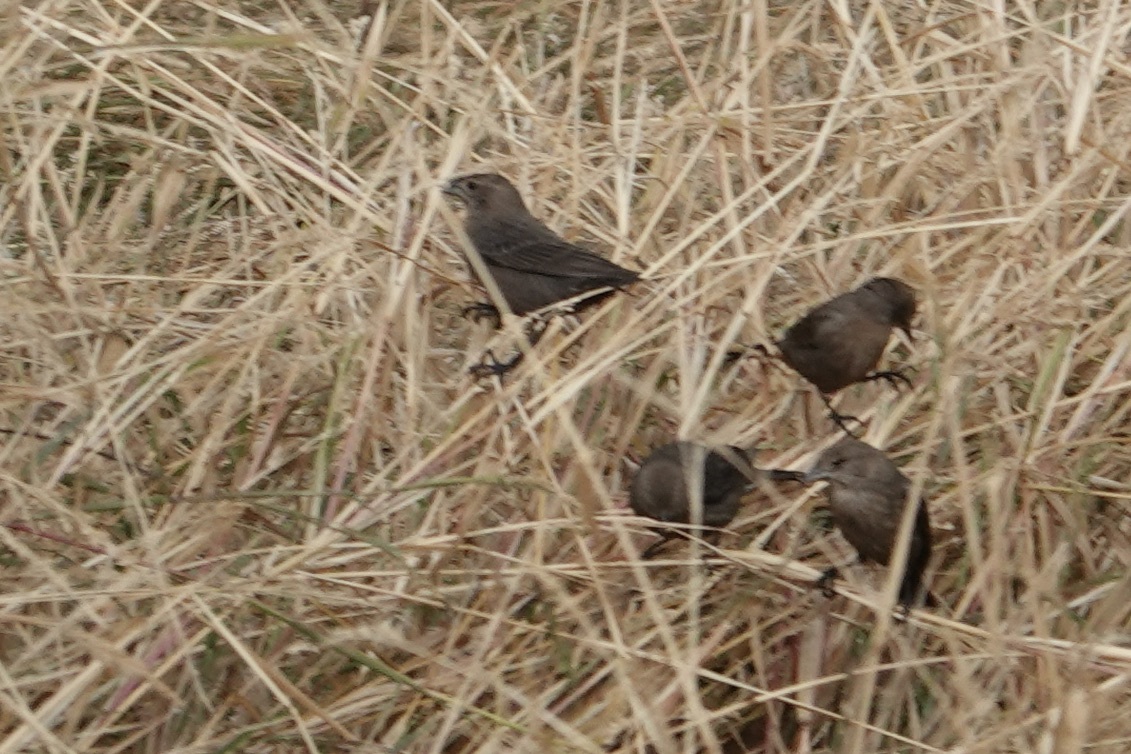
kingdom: Animalia
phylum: Chordata
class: Aves
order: Passeriformes
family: Icteridae
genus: Molothrus
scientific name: Molothrus ater
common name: Brown-headed cowbird
